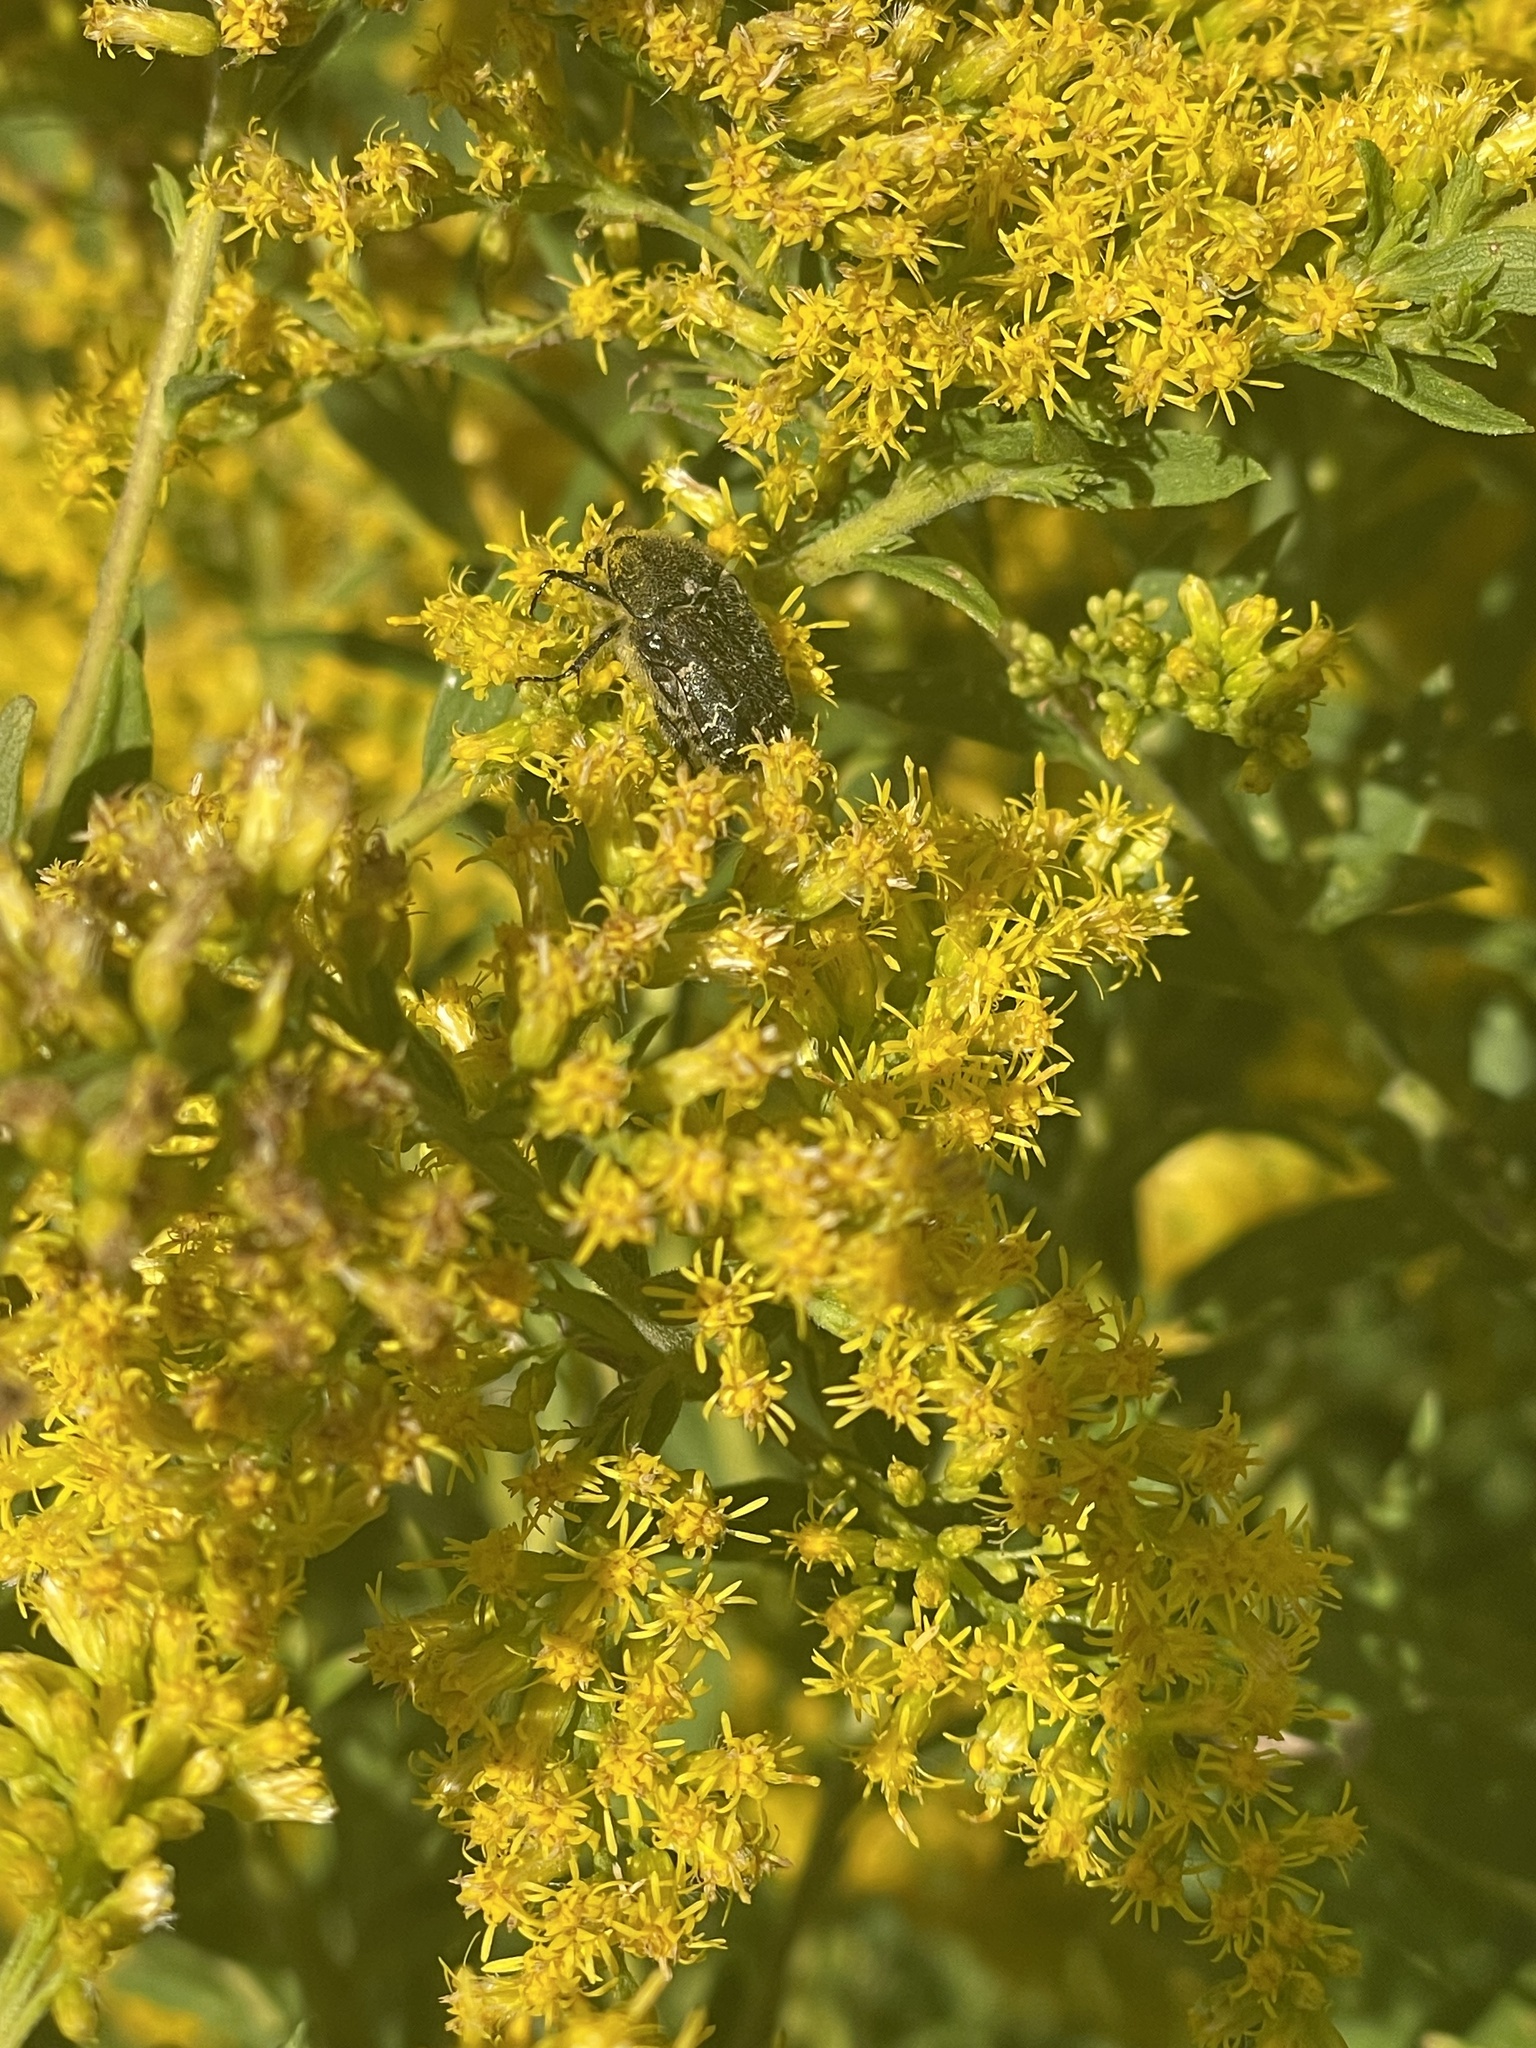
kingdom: Animalia
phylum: Arthropoda
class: Insecta
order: Coleoptera
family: Scarabaeidae
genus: Euphoria
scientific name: Euphoria sepulcralis
